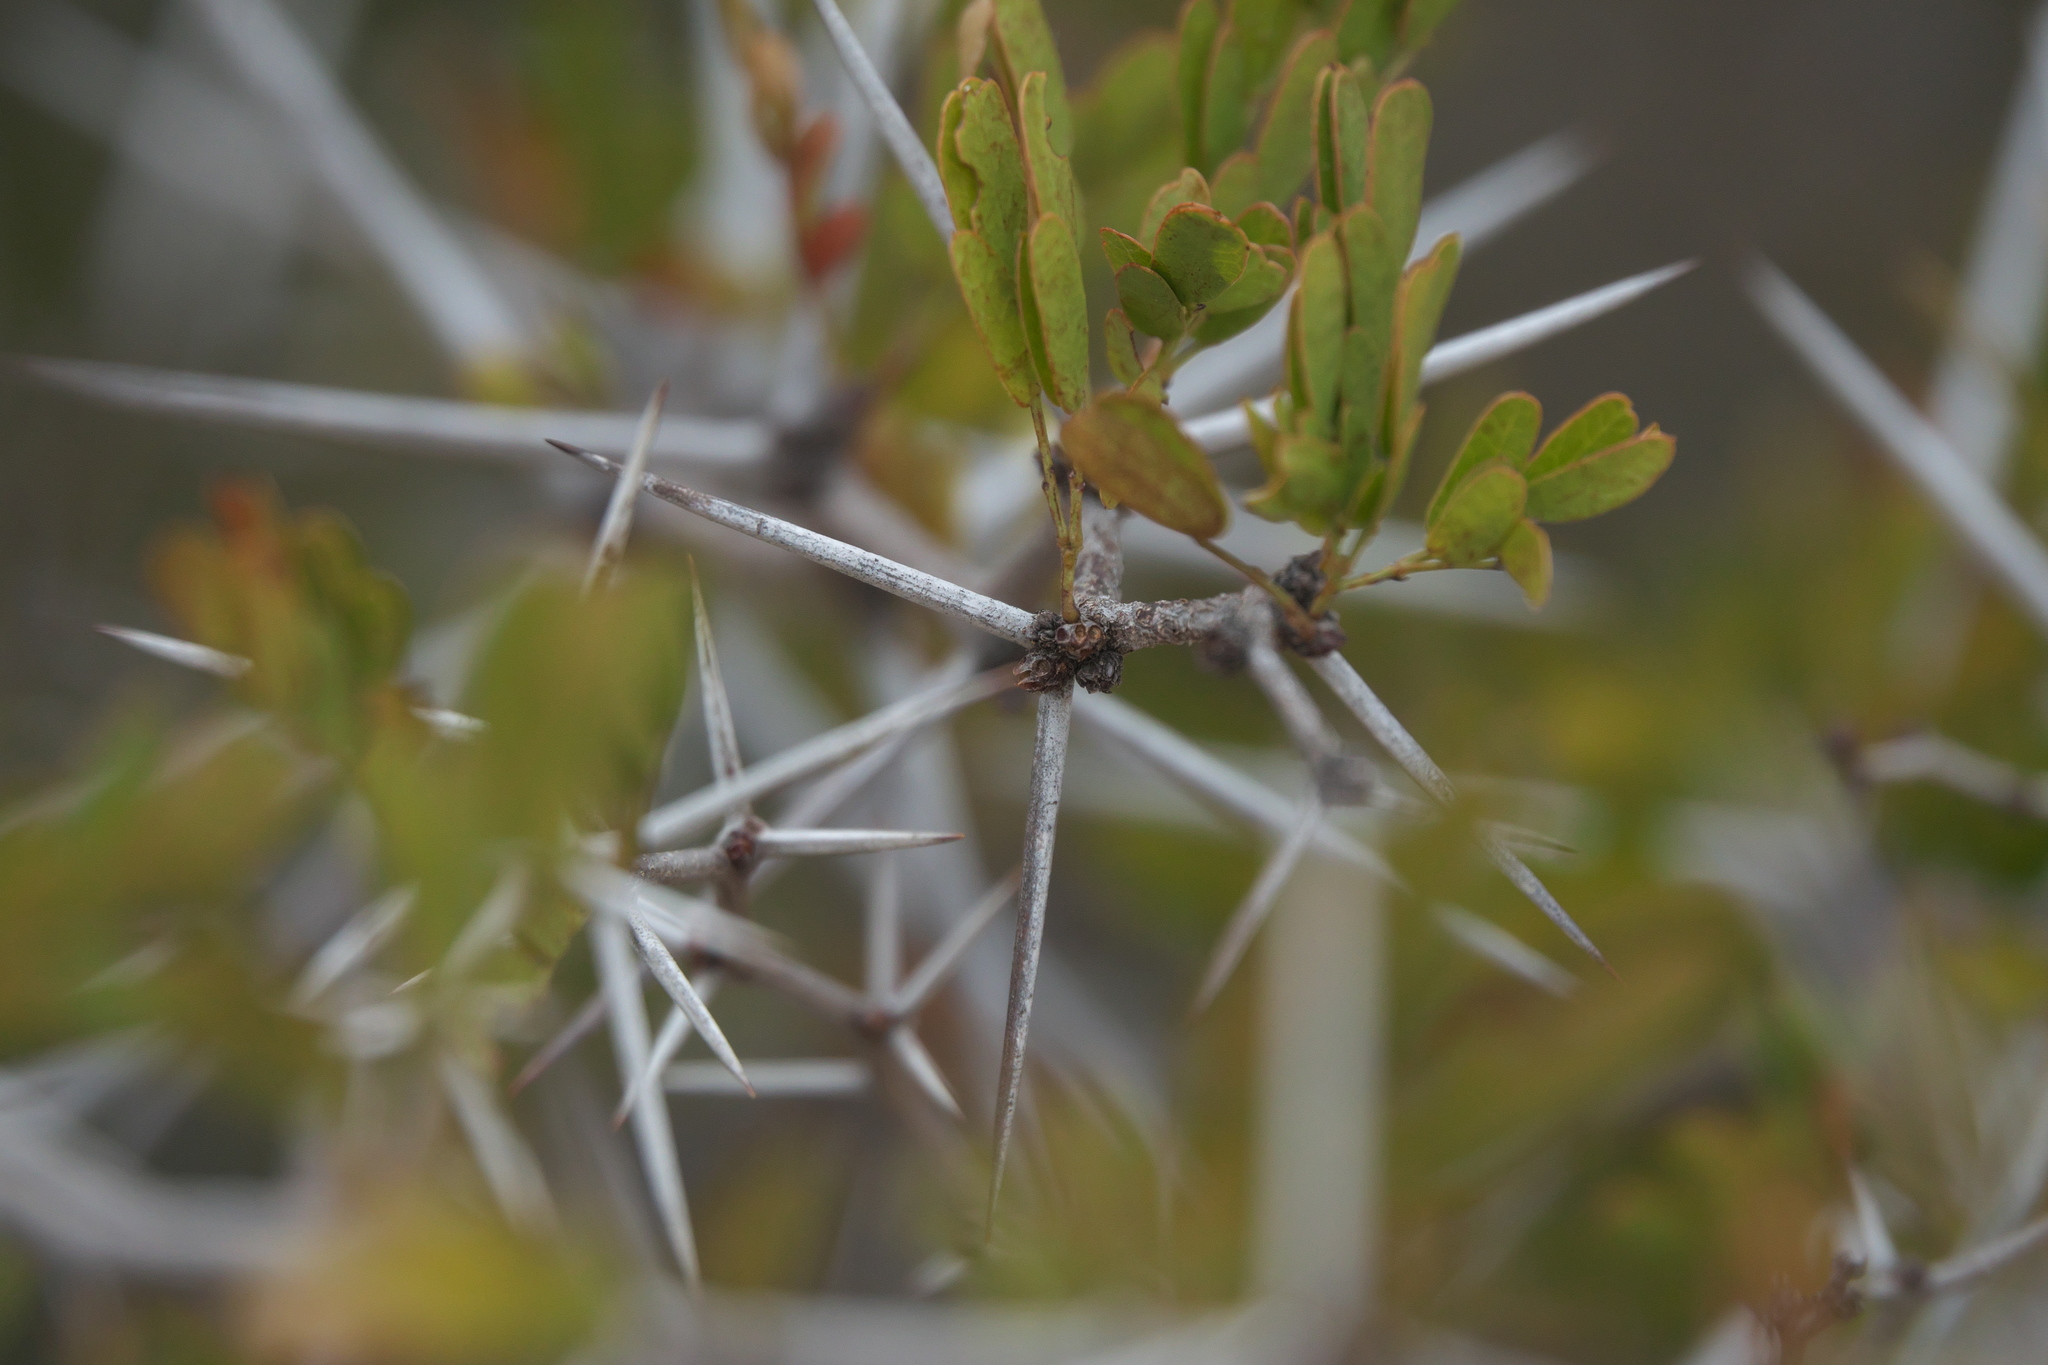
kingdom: Plantae
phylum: Tracheophyta
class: Magnoliopsida
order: Fabales
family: Fabaceae
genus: Vachellia
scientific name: Vachellia rigidula
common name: Blackbrush
